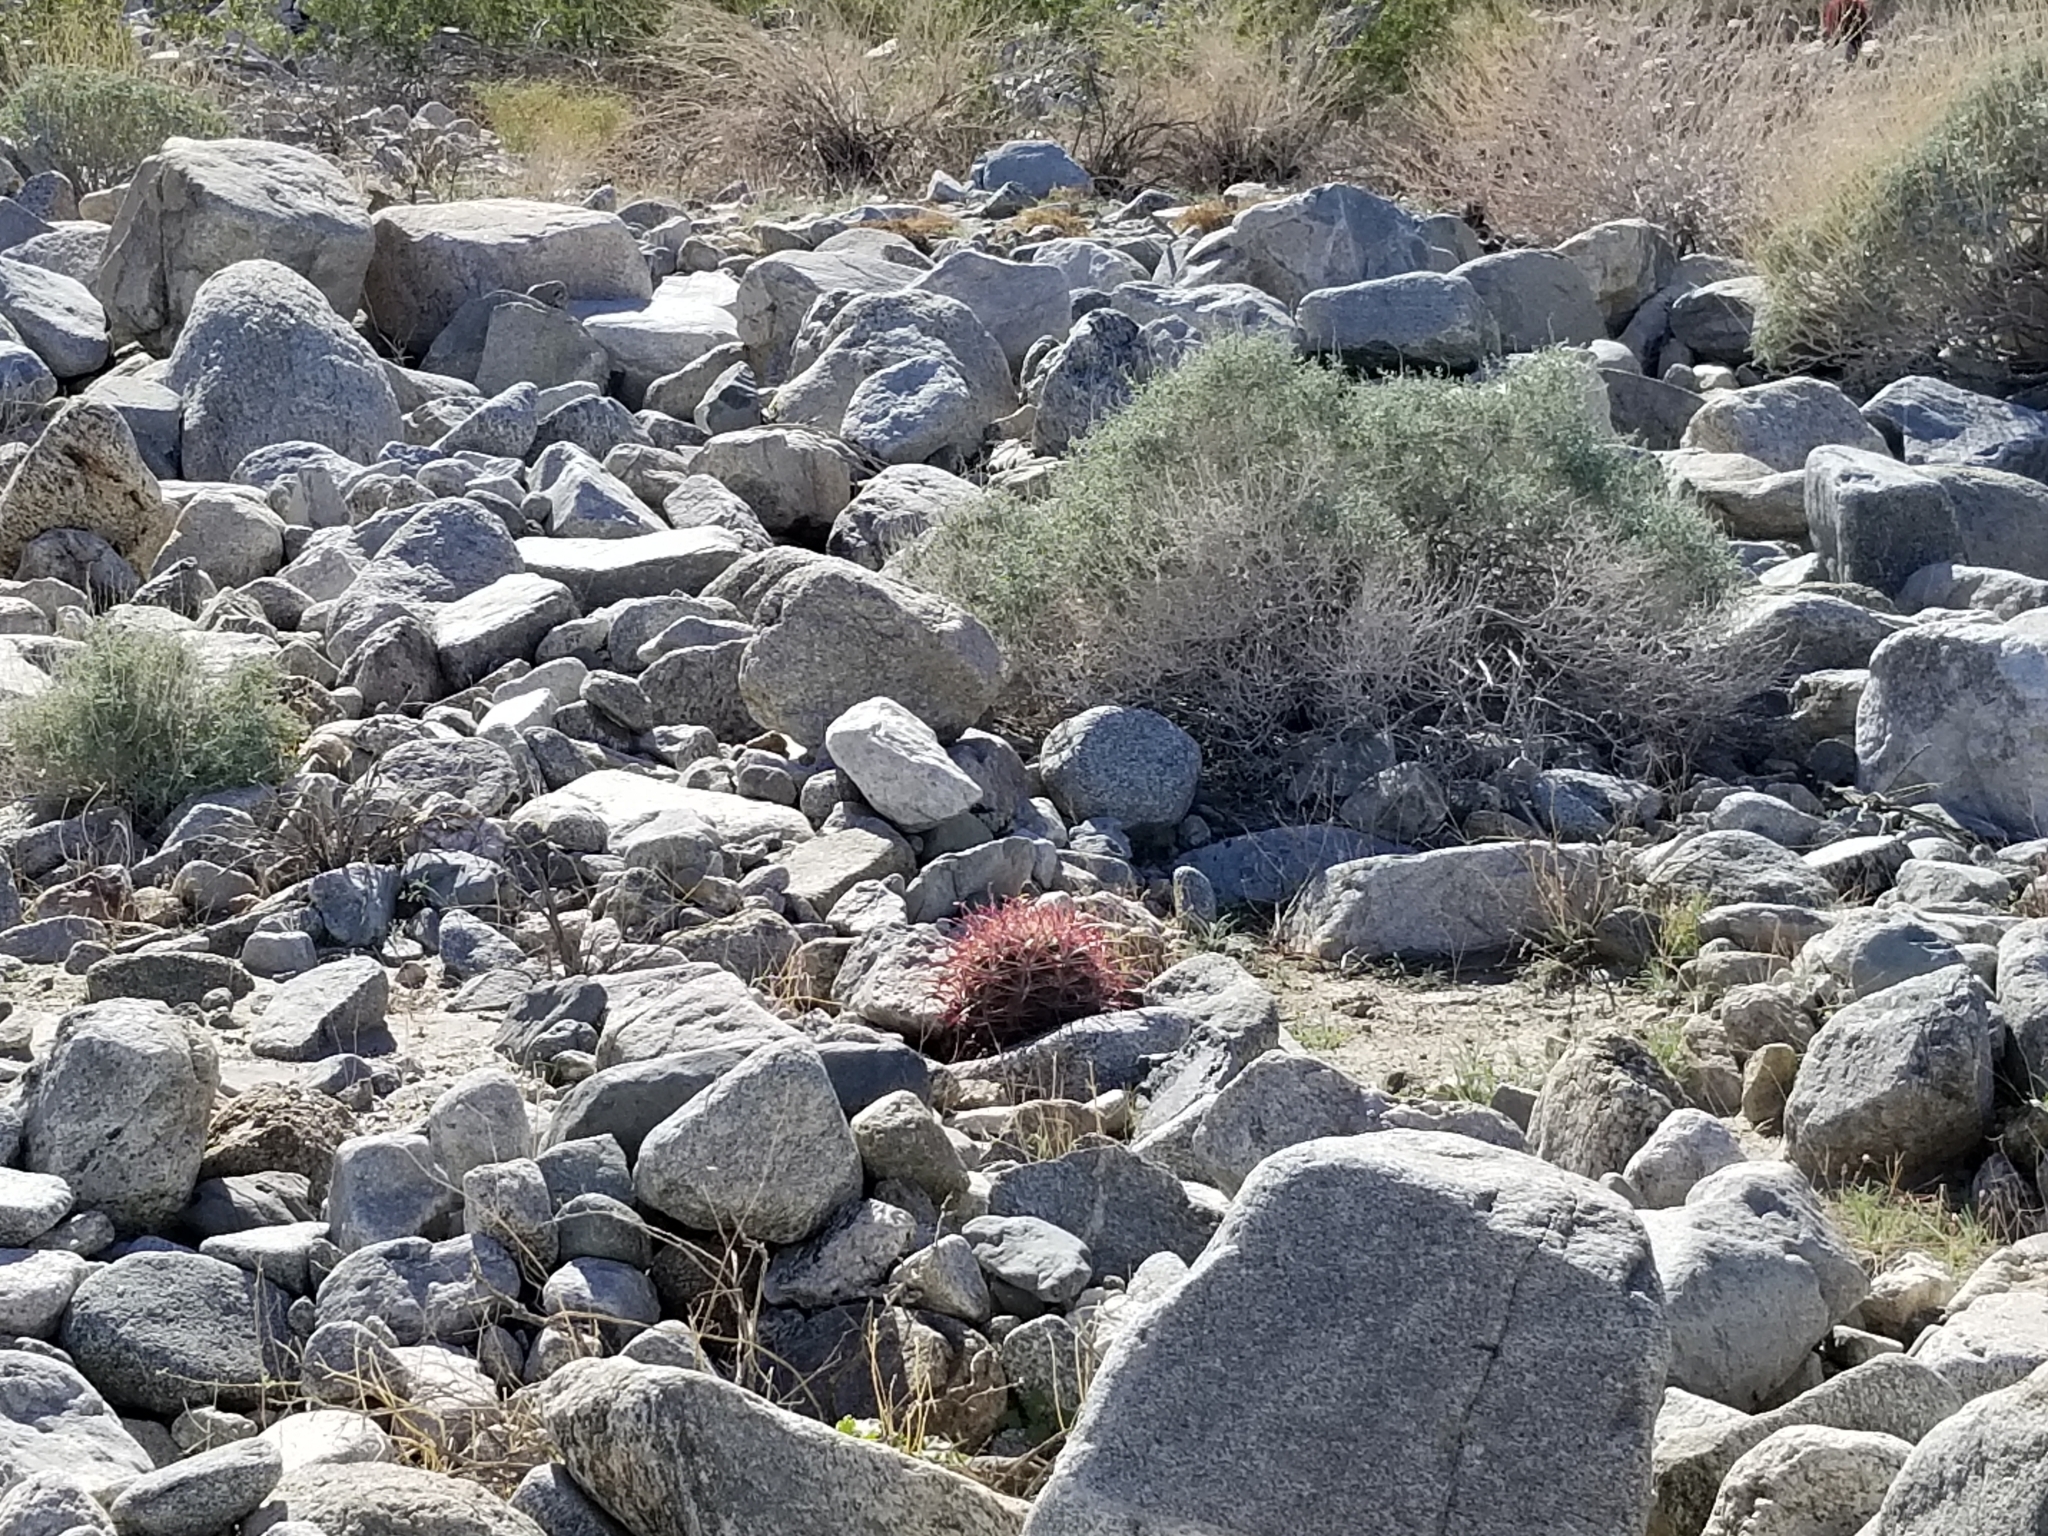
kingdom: Plantae
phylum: Tracheophyta
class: Magnoliopsida
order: Caryophyllales
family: Cactaceae
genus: Ferocactus
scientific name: Ferocactus cylindraceus
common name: California barrel cactus
